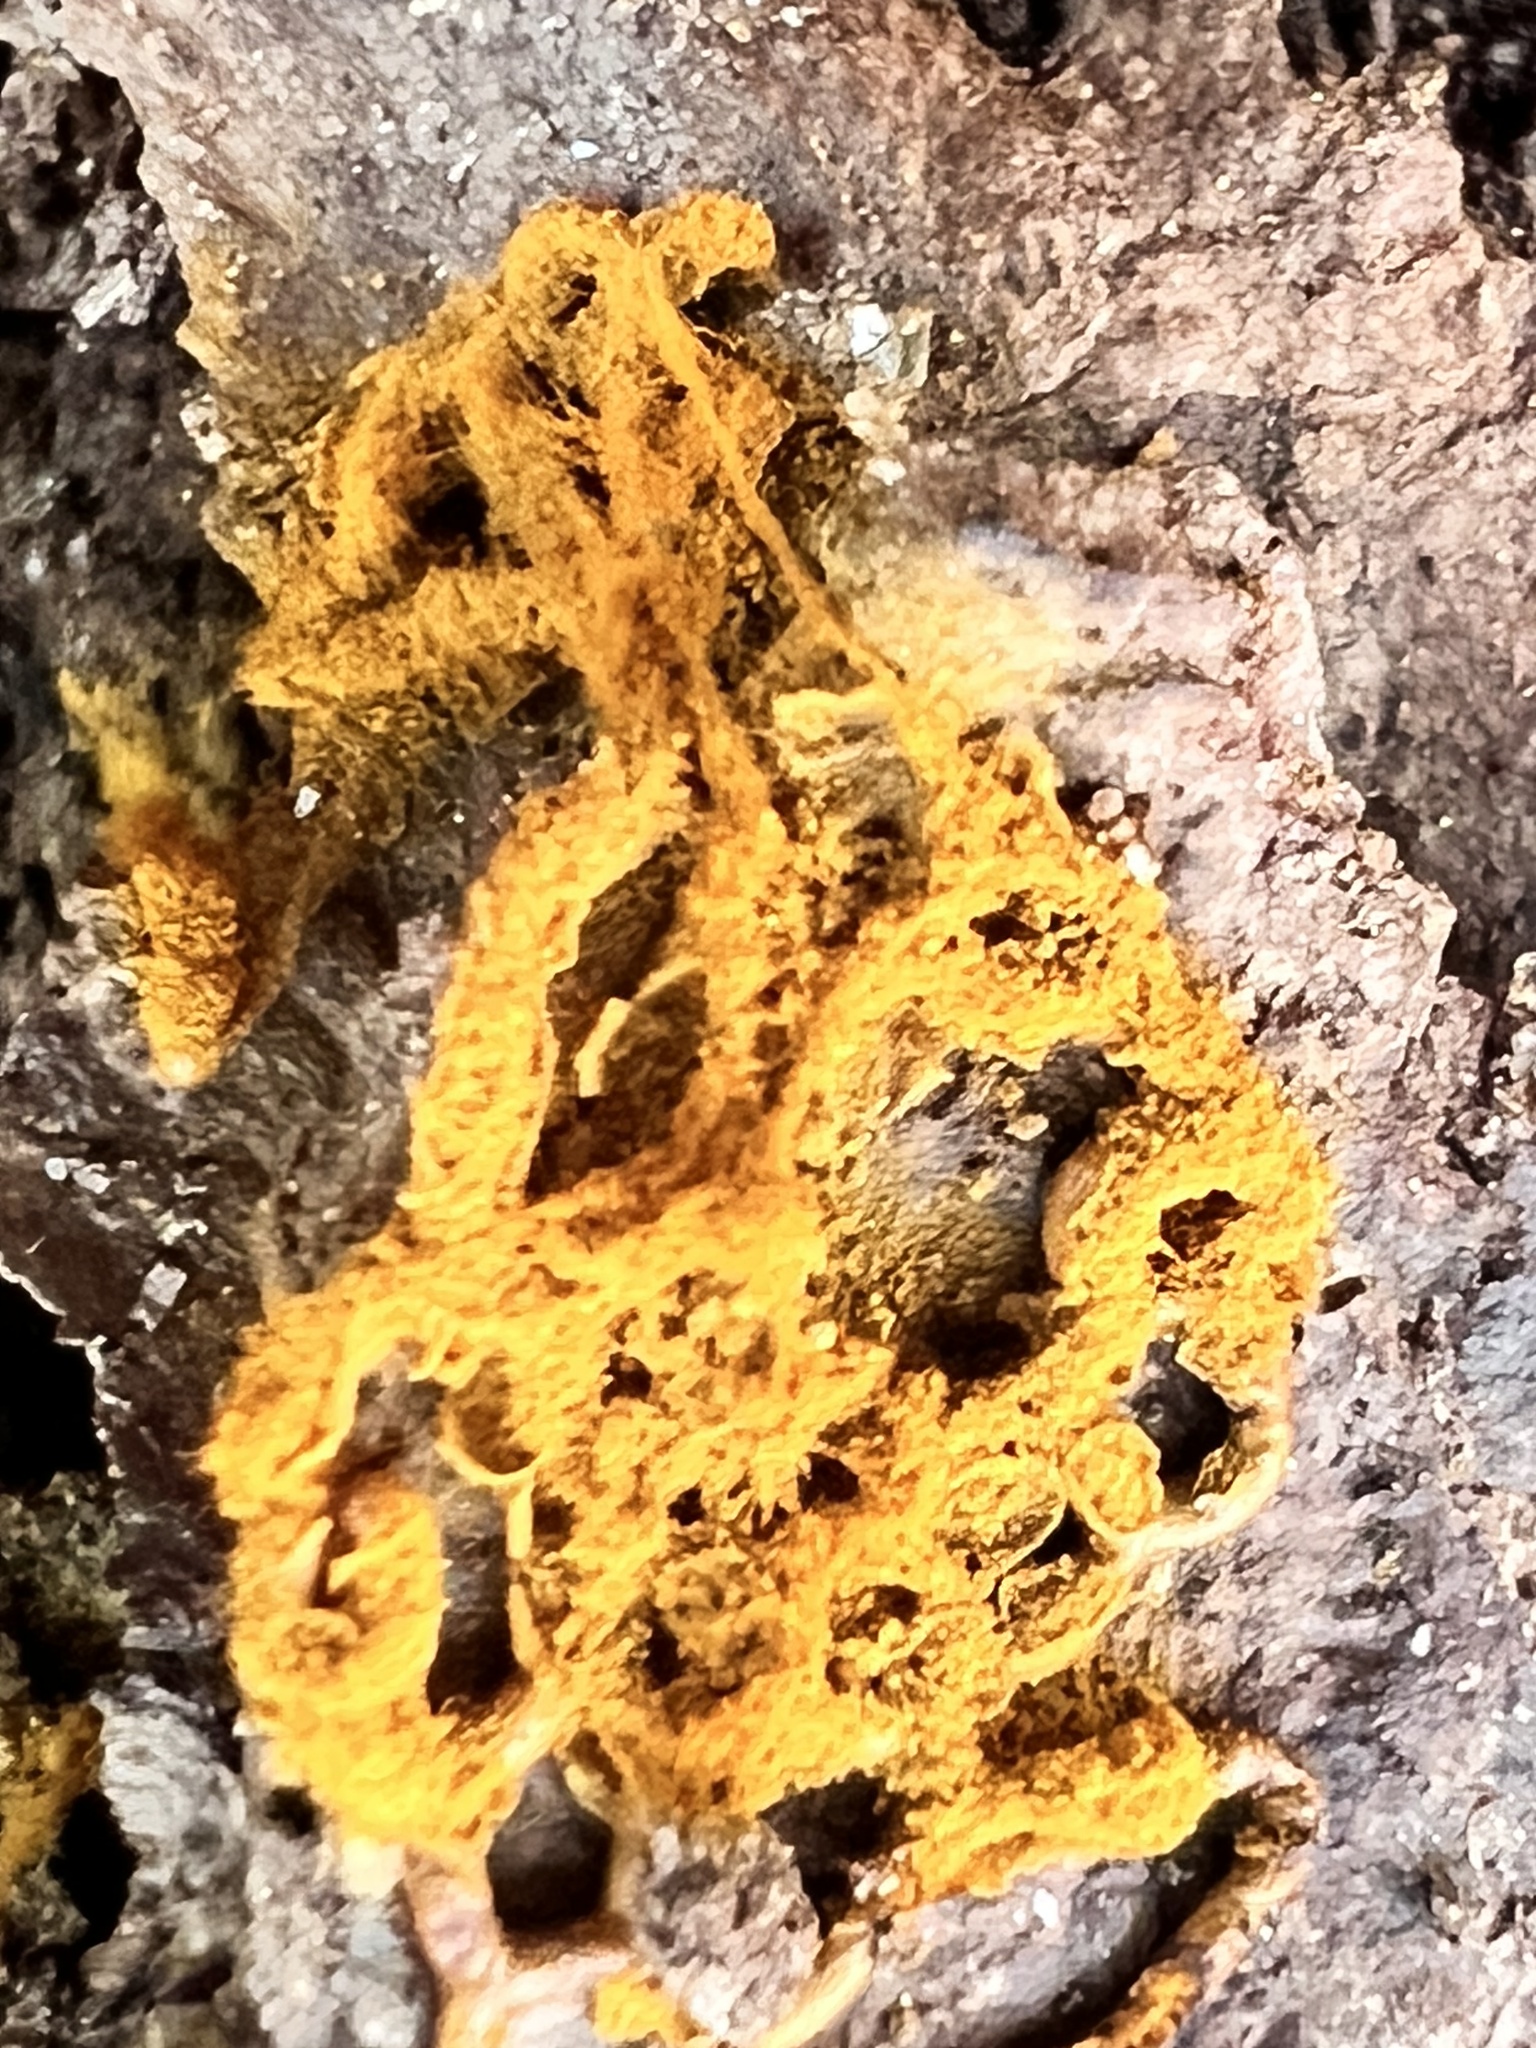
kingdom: Protozoa
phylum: Mycetozoa
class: Myxomycetes
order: Trichiales
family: Arcyriaceae
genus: Hemitrichia
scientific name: Hemitrichia serpula
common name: Pretzel slime mold
